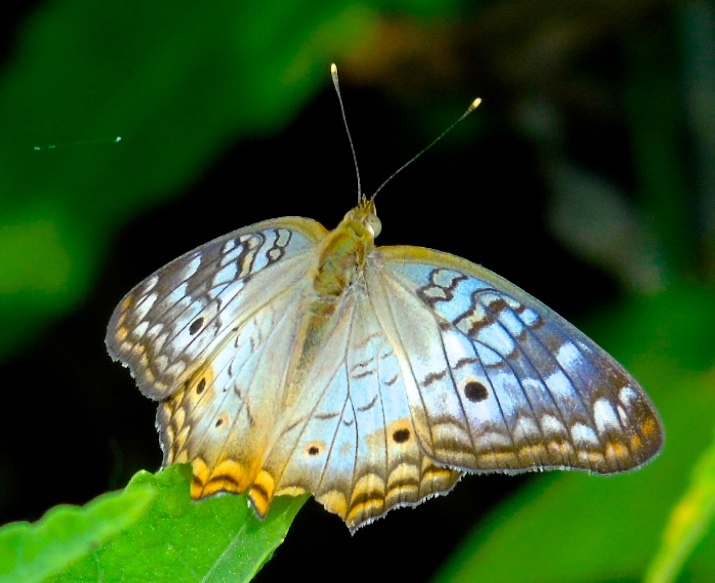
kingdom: Animalia
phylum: Arthropoda
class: Insecta
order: Lepidoptera
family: Nymphalidae
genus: Anartia
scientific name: Anartia jatrophae
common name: White peacock
